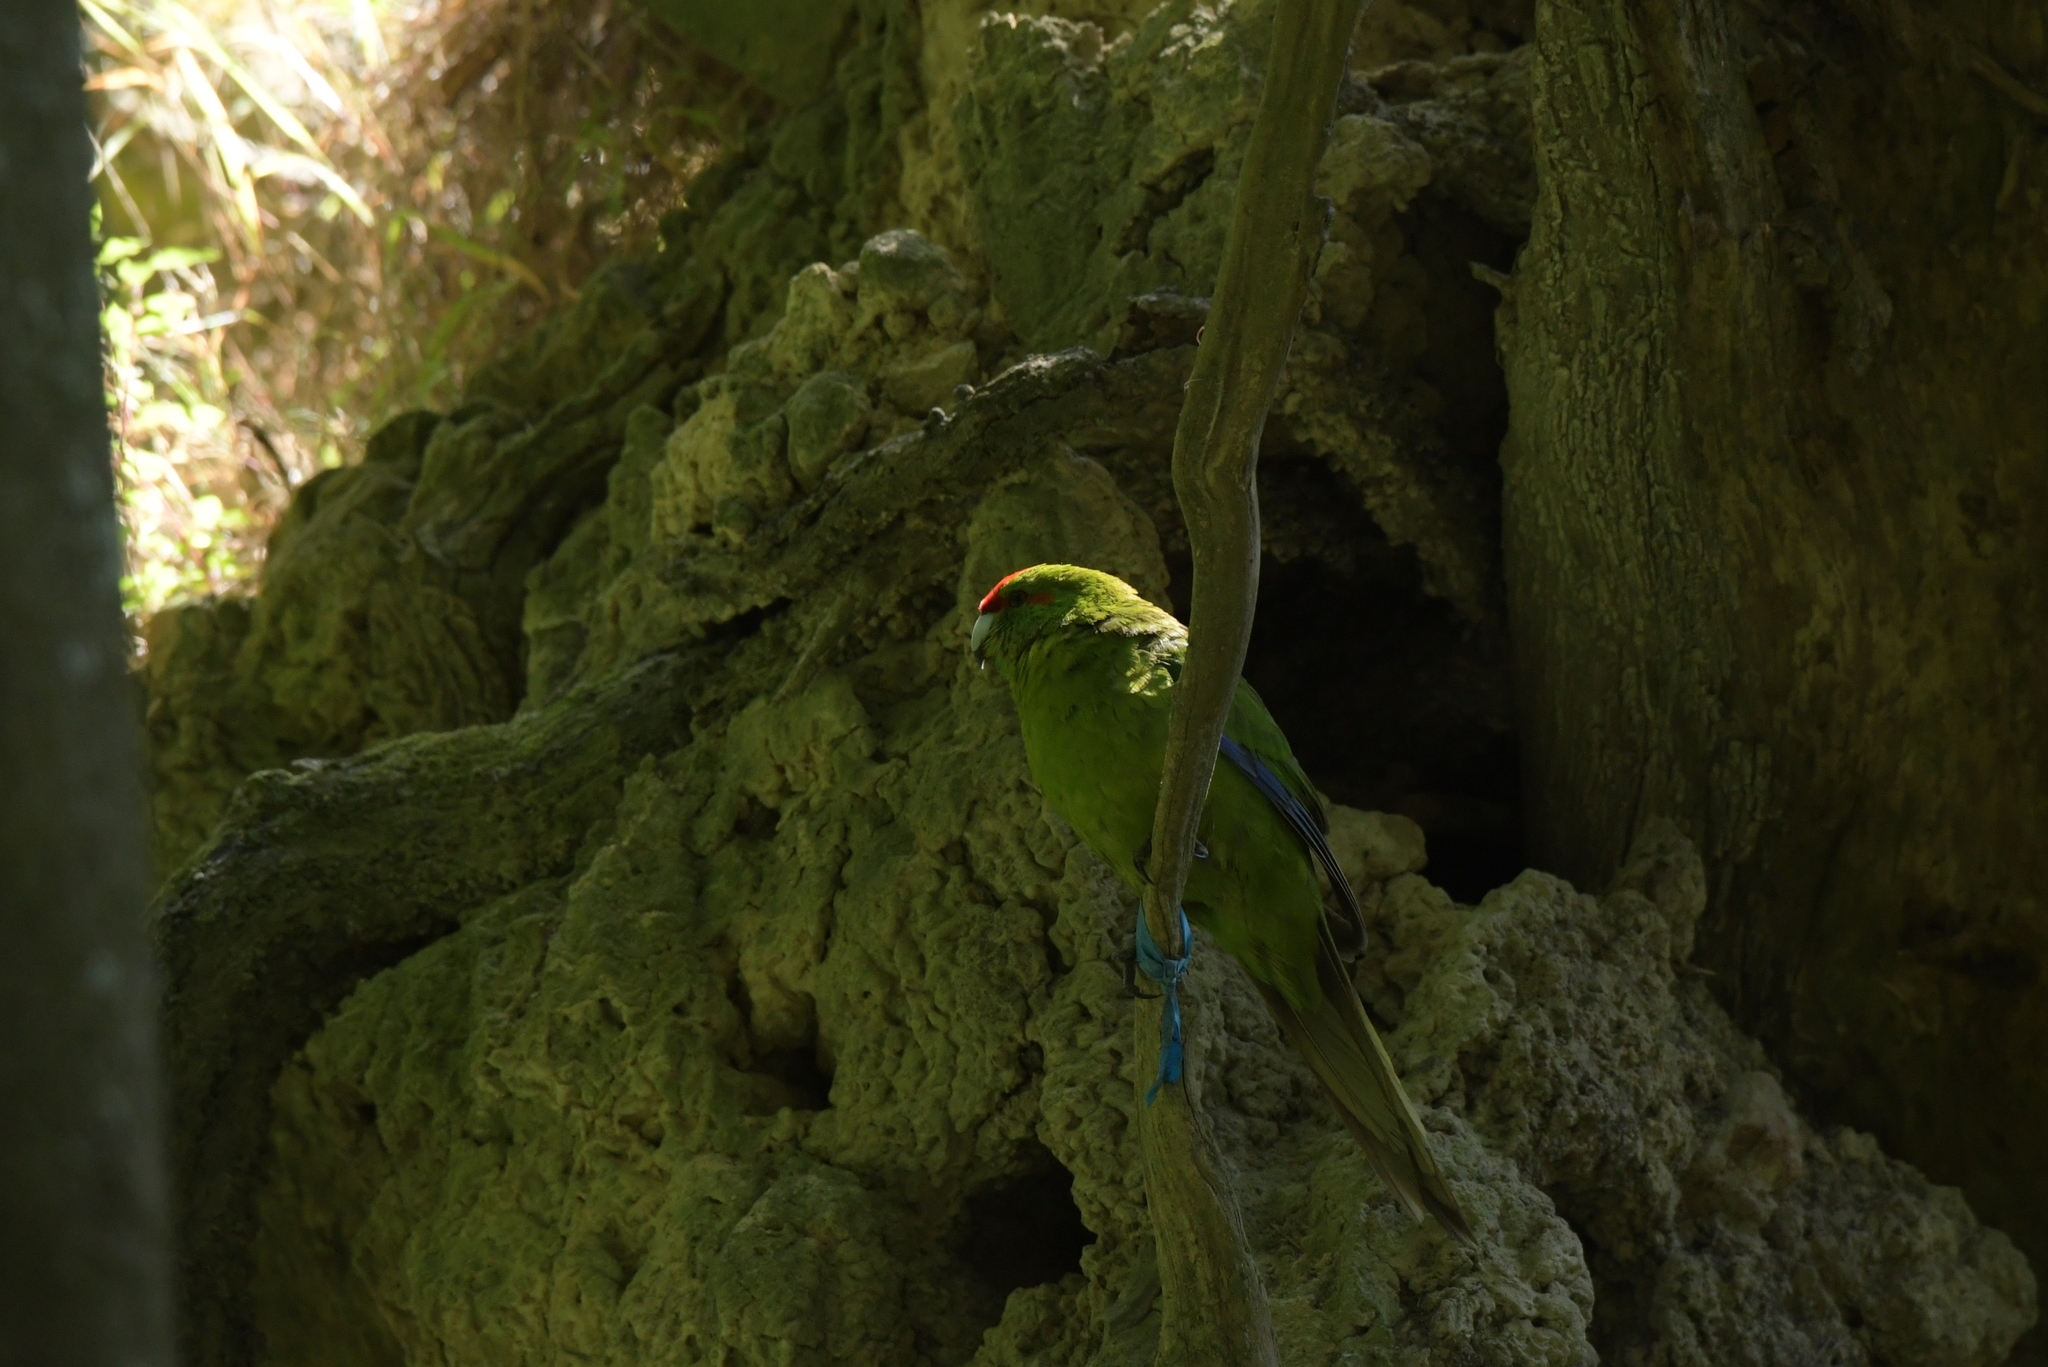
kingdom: Animalia
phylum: Chordata
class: Aves
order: Psittaciformes
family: Psittacidae
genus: Cyanoramphus
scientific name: Cyanoramphus novaezelandiae
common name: Red-fronted parakeet
